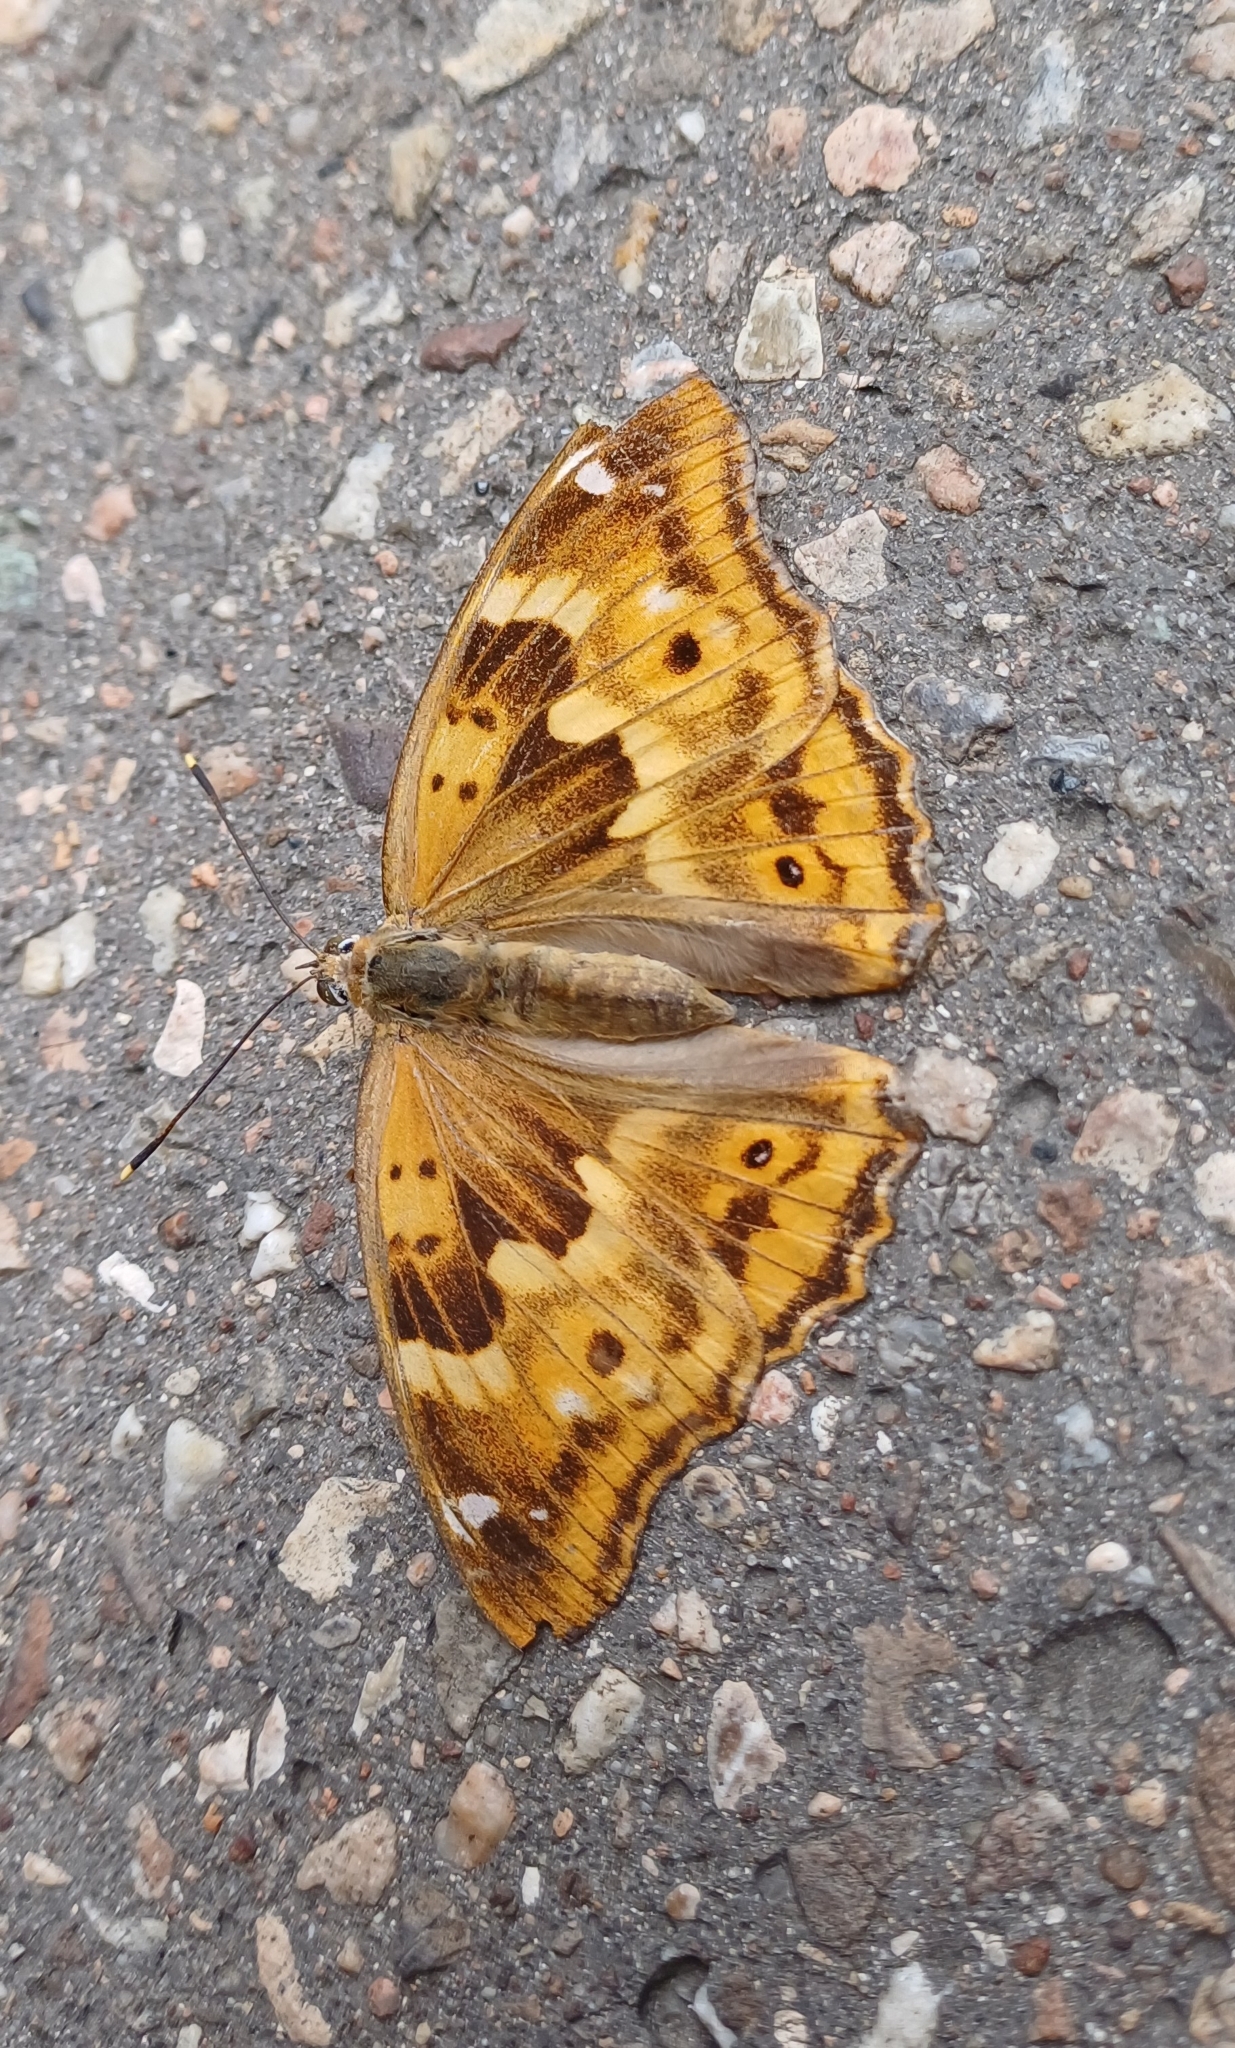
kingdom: Animalia
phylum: Arthropoda
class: Insecta
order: Lepidoptera
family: Nymphalidae
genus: Apatura
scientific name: Apatura ilia
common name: Lesser purple emperor
